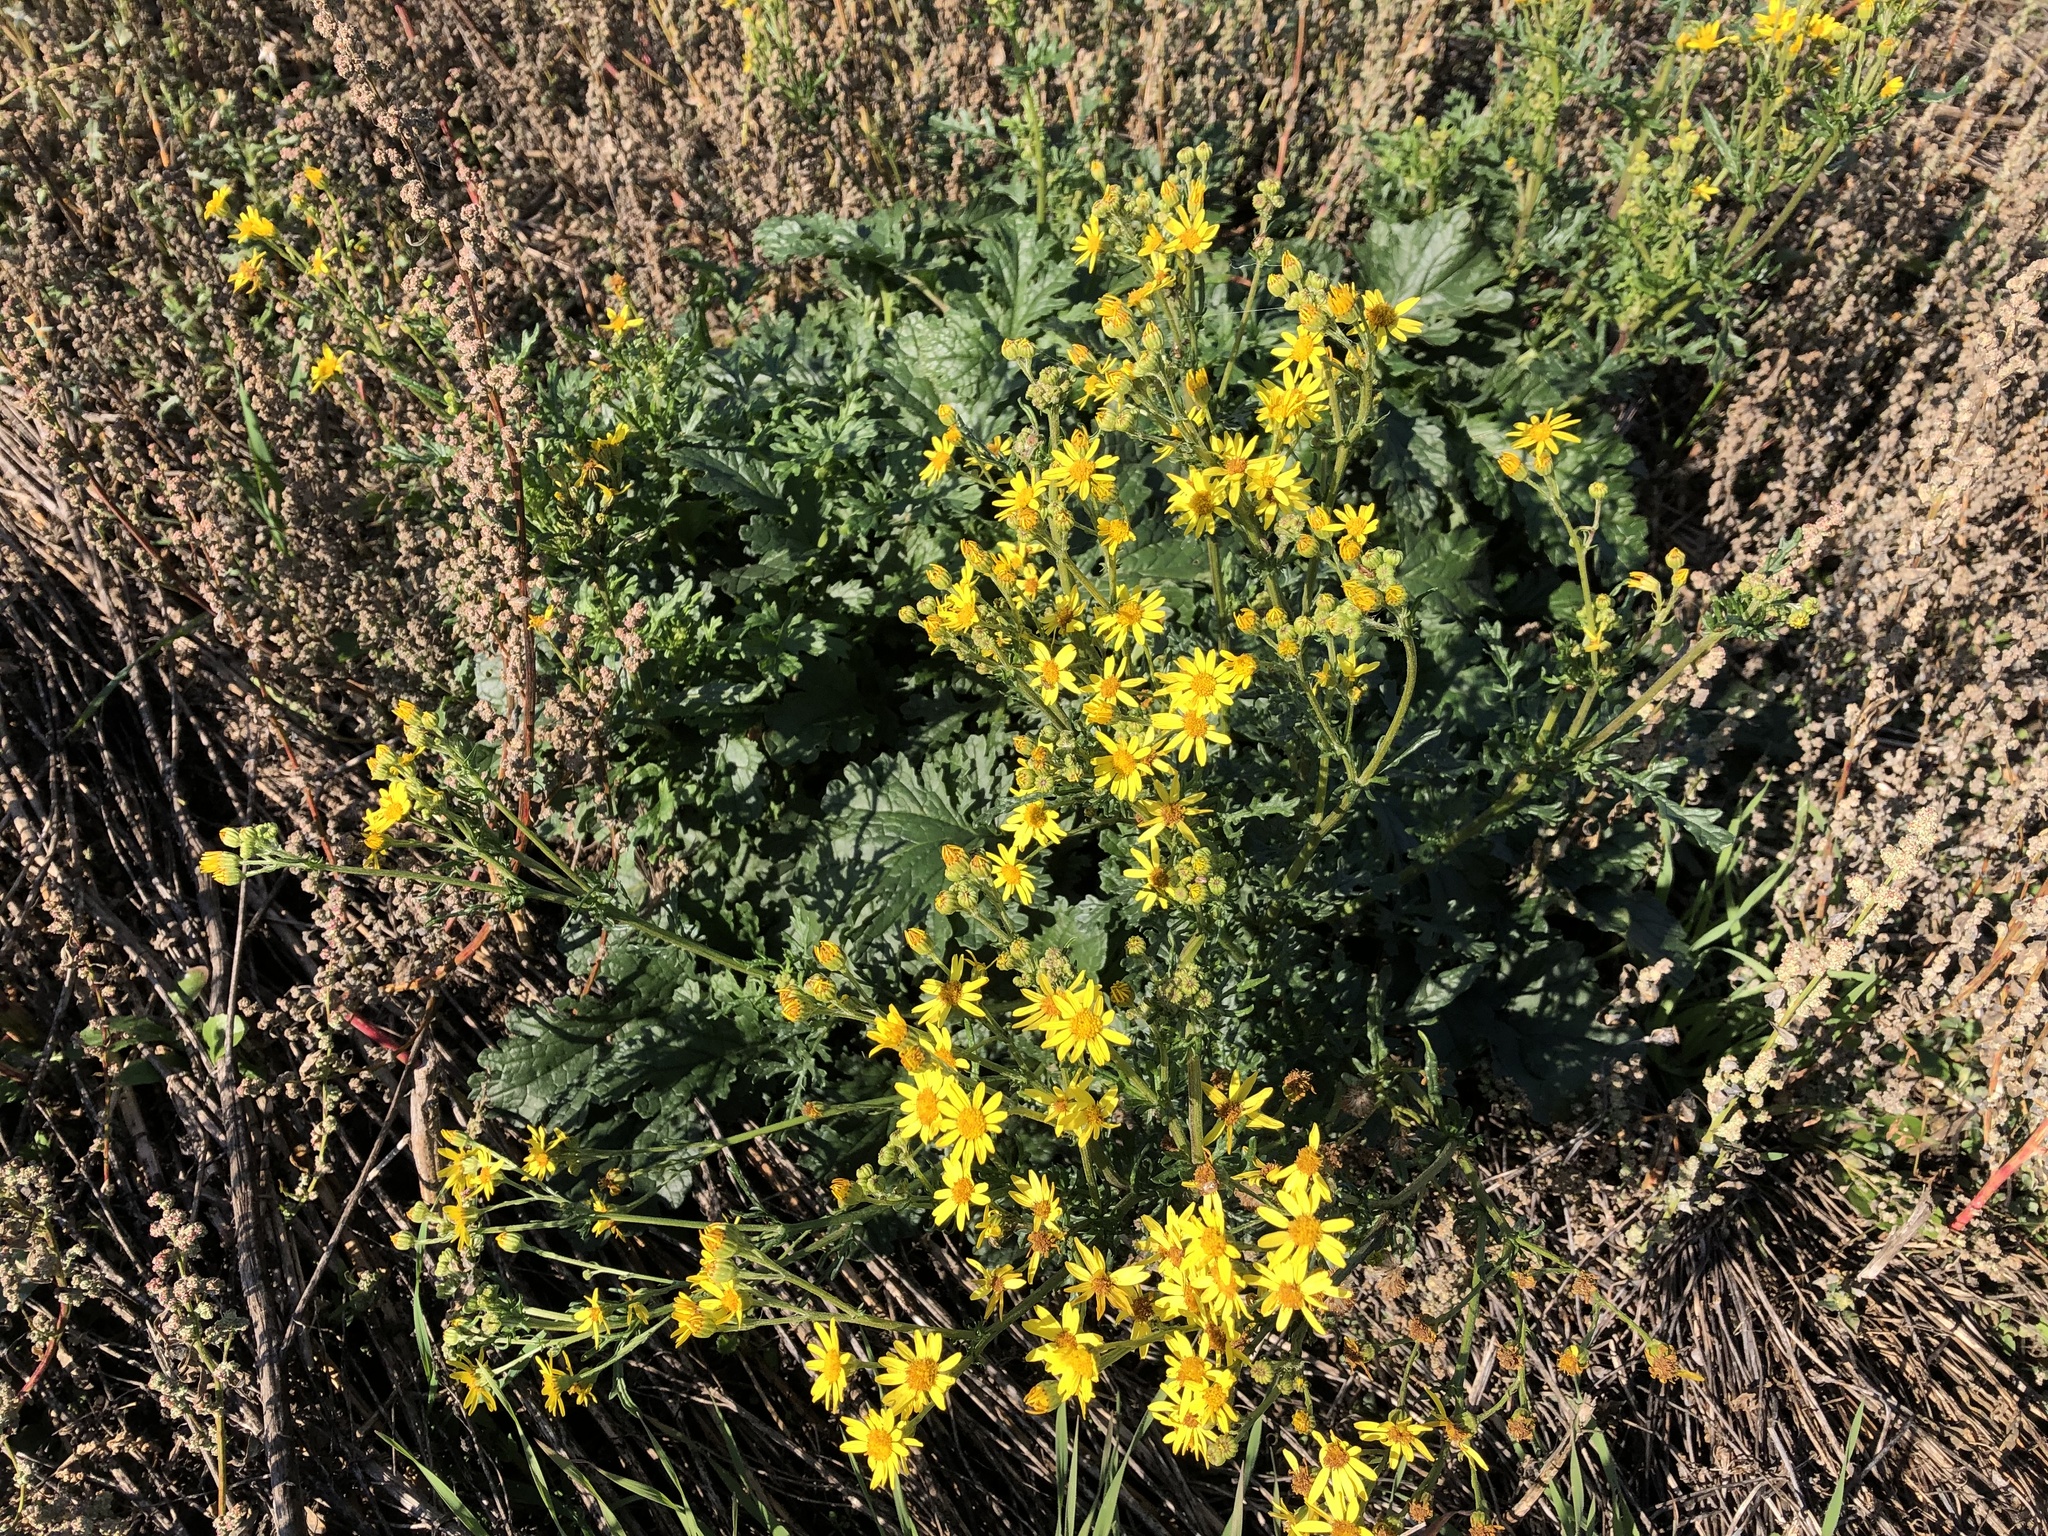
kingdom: Plantae
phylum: Tracheophyta
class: Magnoliopsida
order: Asterales
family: Asteraceae
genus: Jacobaea
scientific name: Jacobaea vulgaris
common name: Stinking willie
